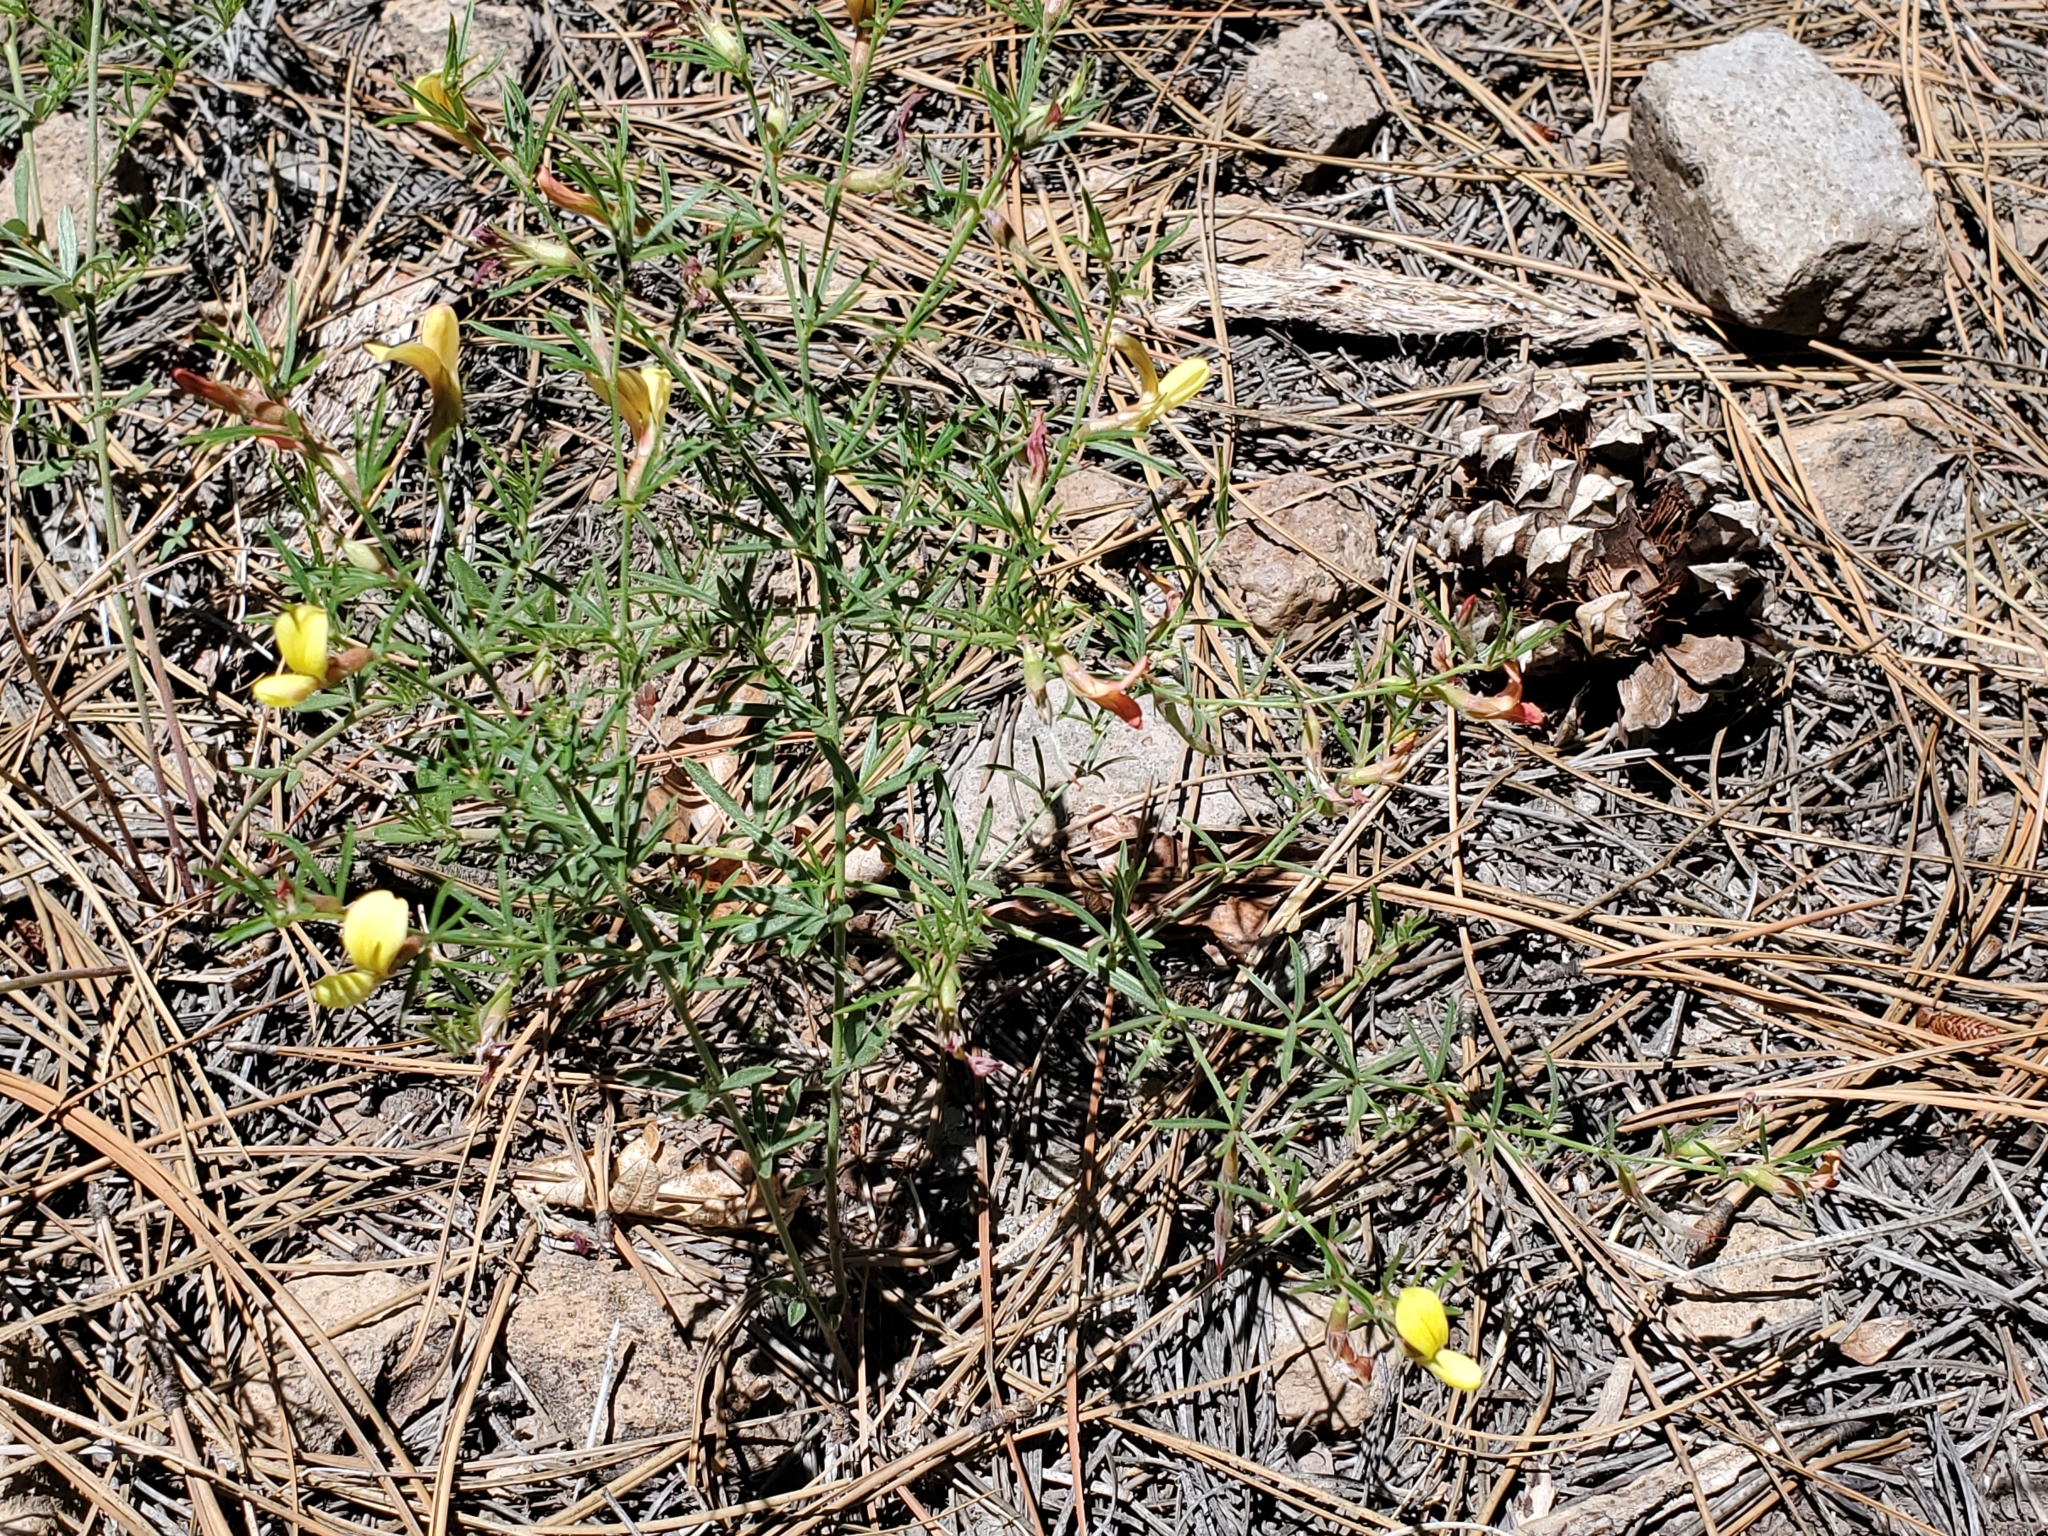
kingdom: Plantae
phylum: Tracheophyta
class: Magnoliopsida
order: Fabales
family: Fabaceae
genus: Acmispon
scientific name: Acmispon wrightii
